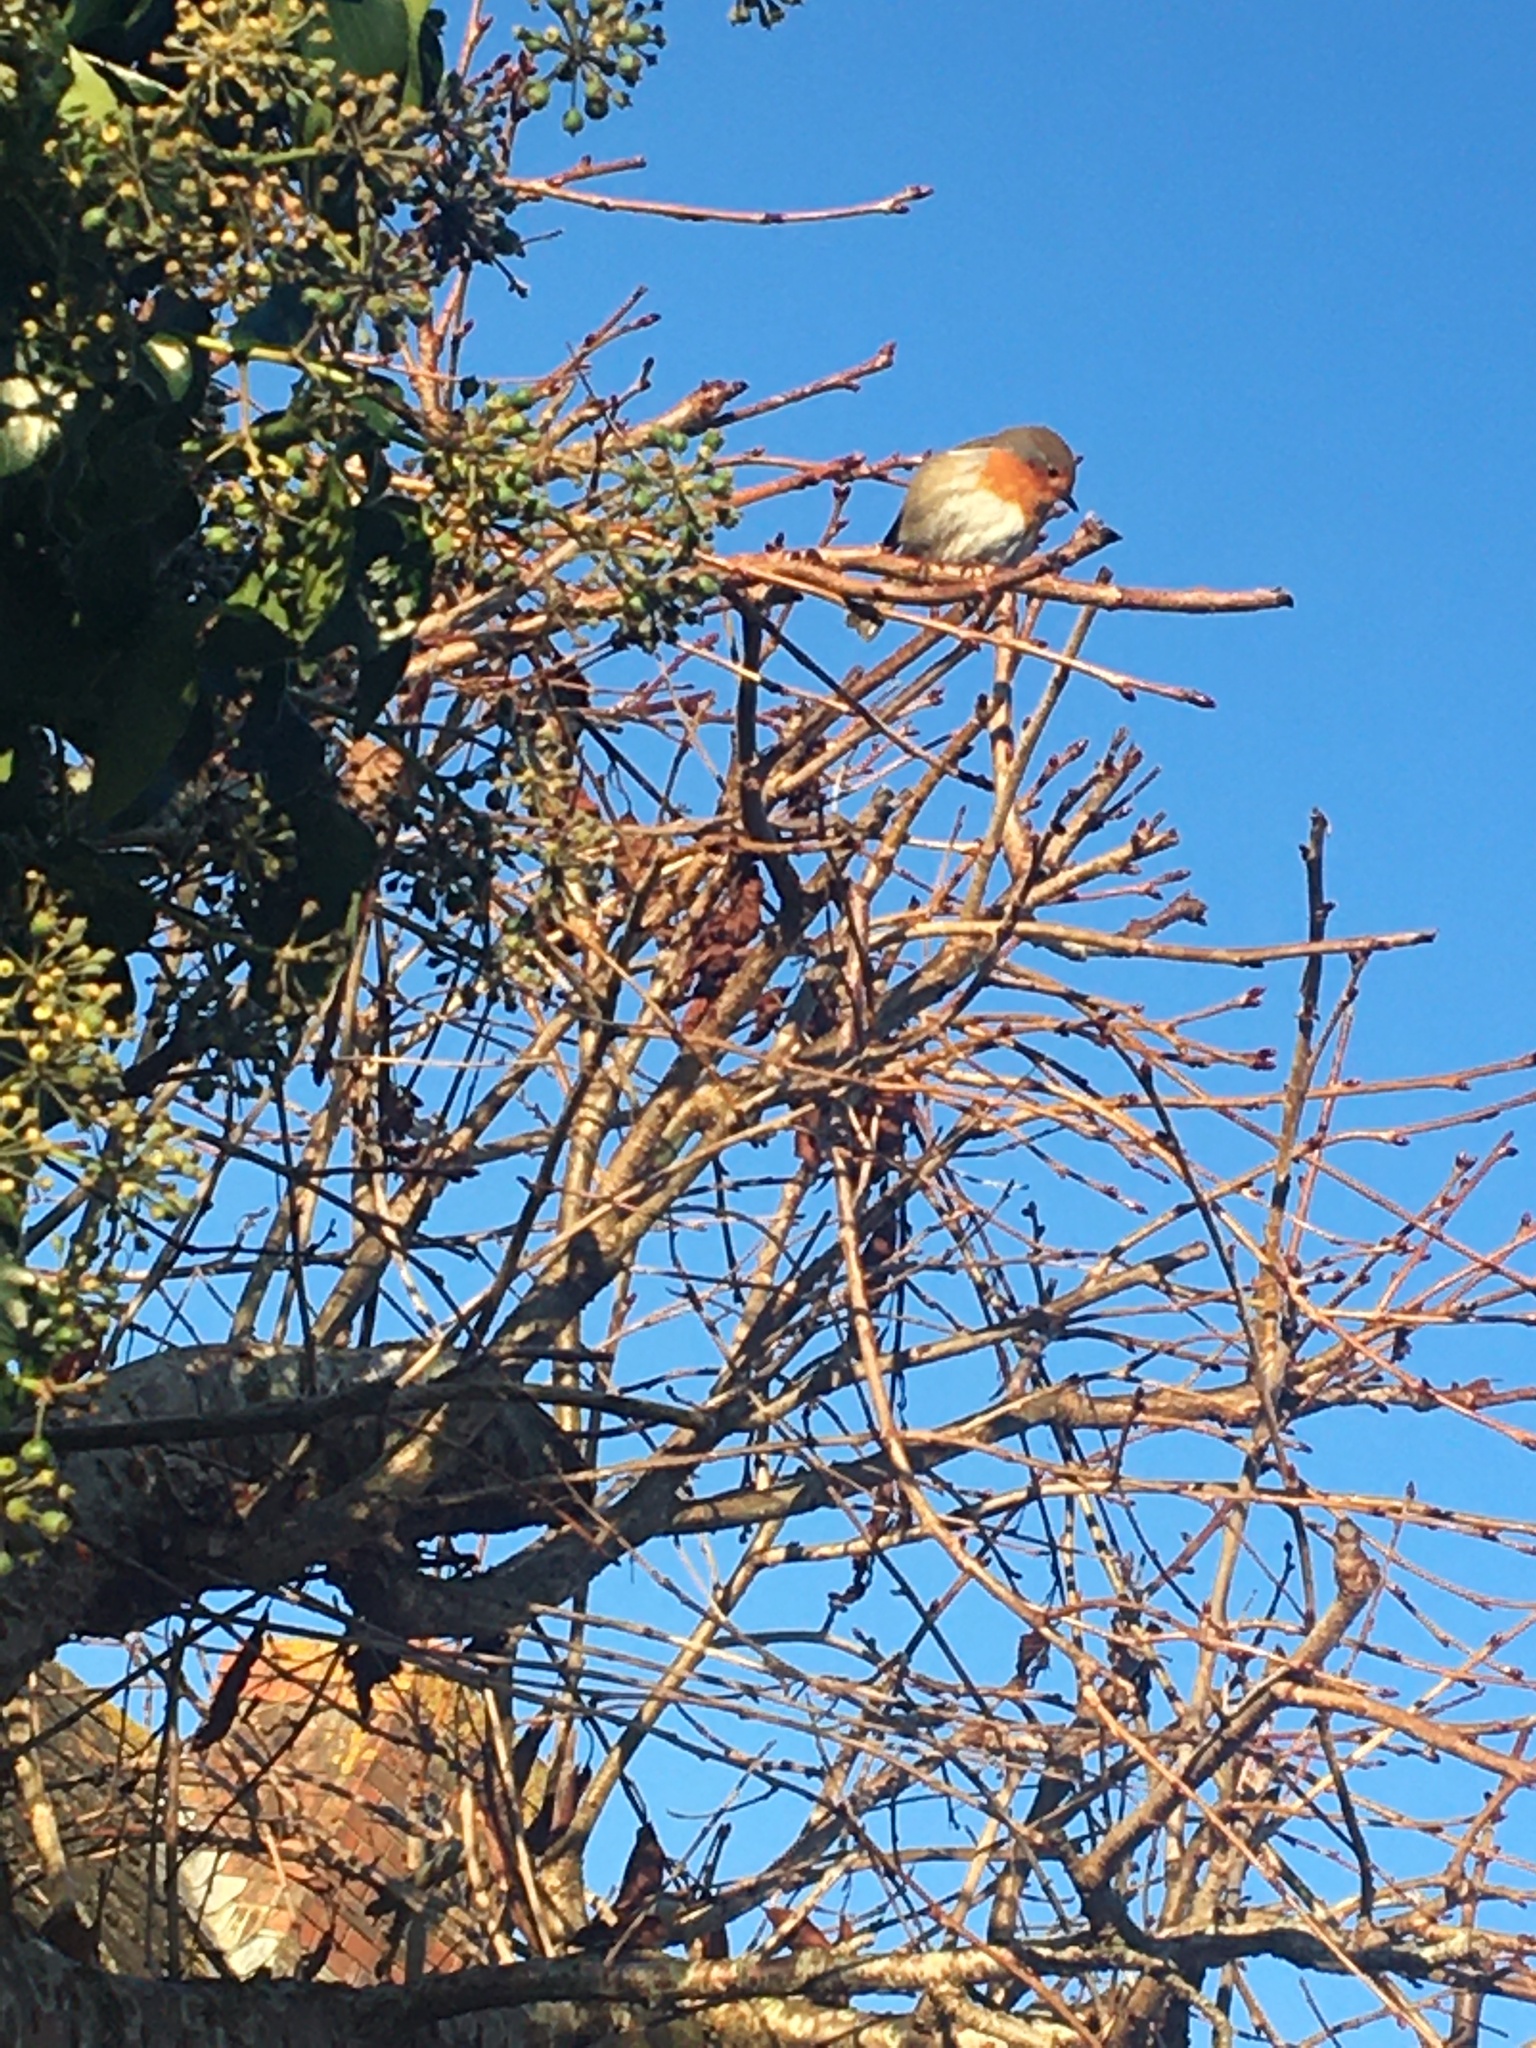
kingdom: Animalia
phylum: Chordata
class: Aves
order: Passeriformes
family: Muscicapidae
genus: Erithacus
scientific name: Erithacus rubecula
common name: European robin
